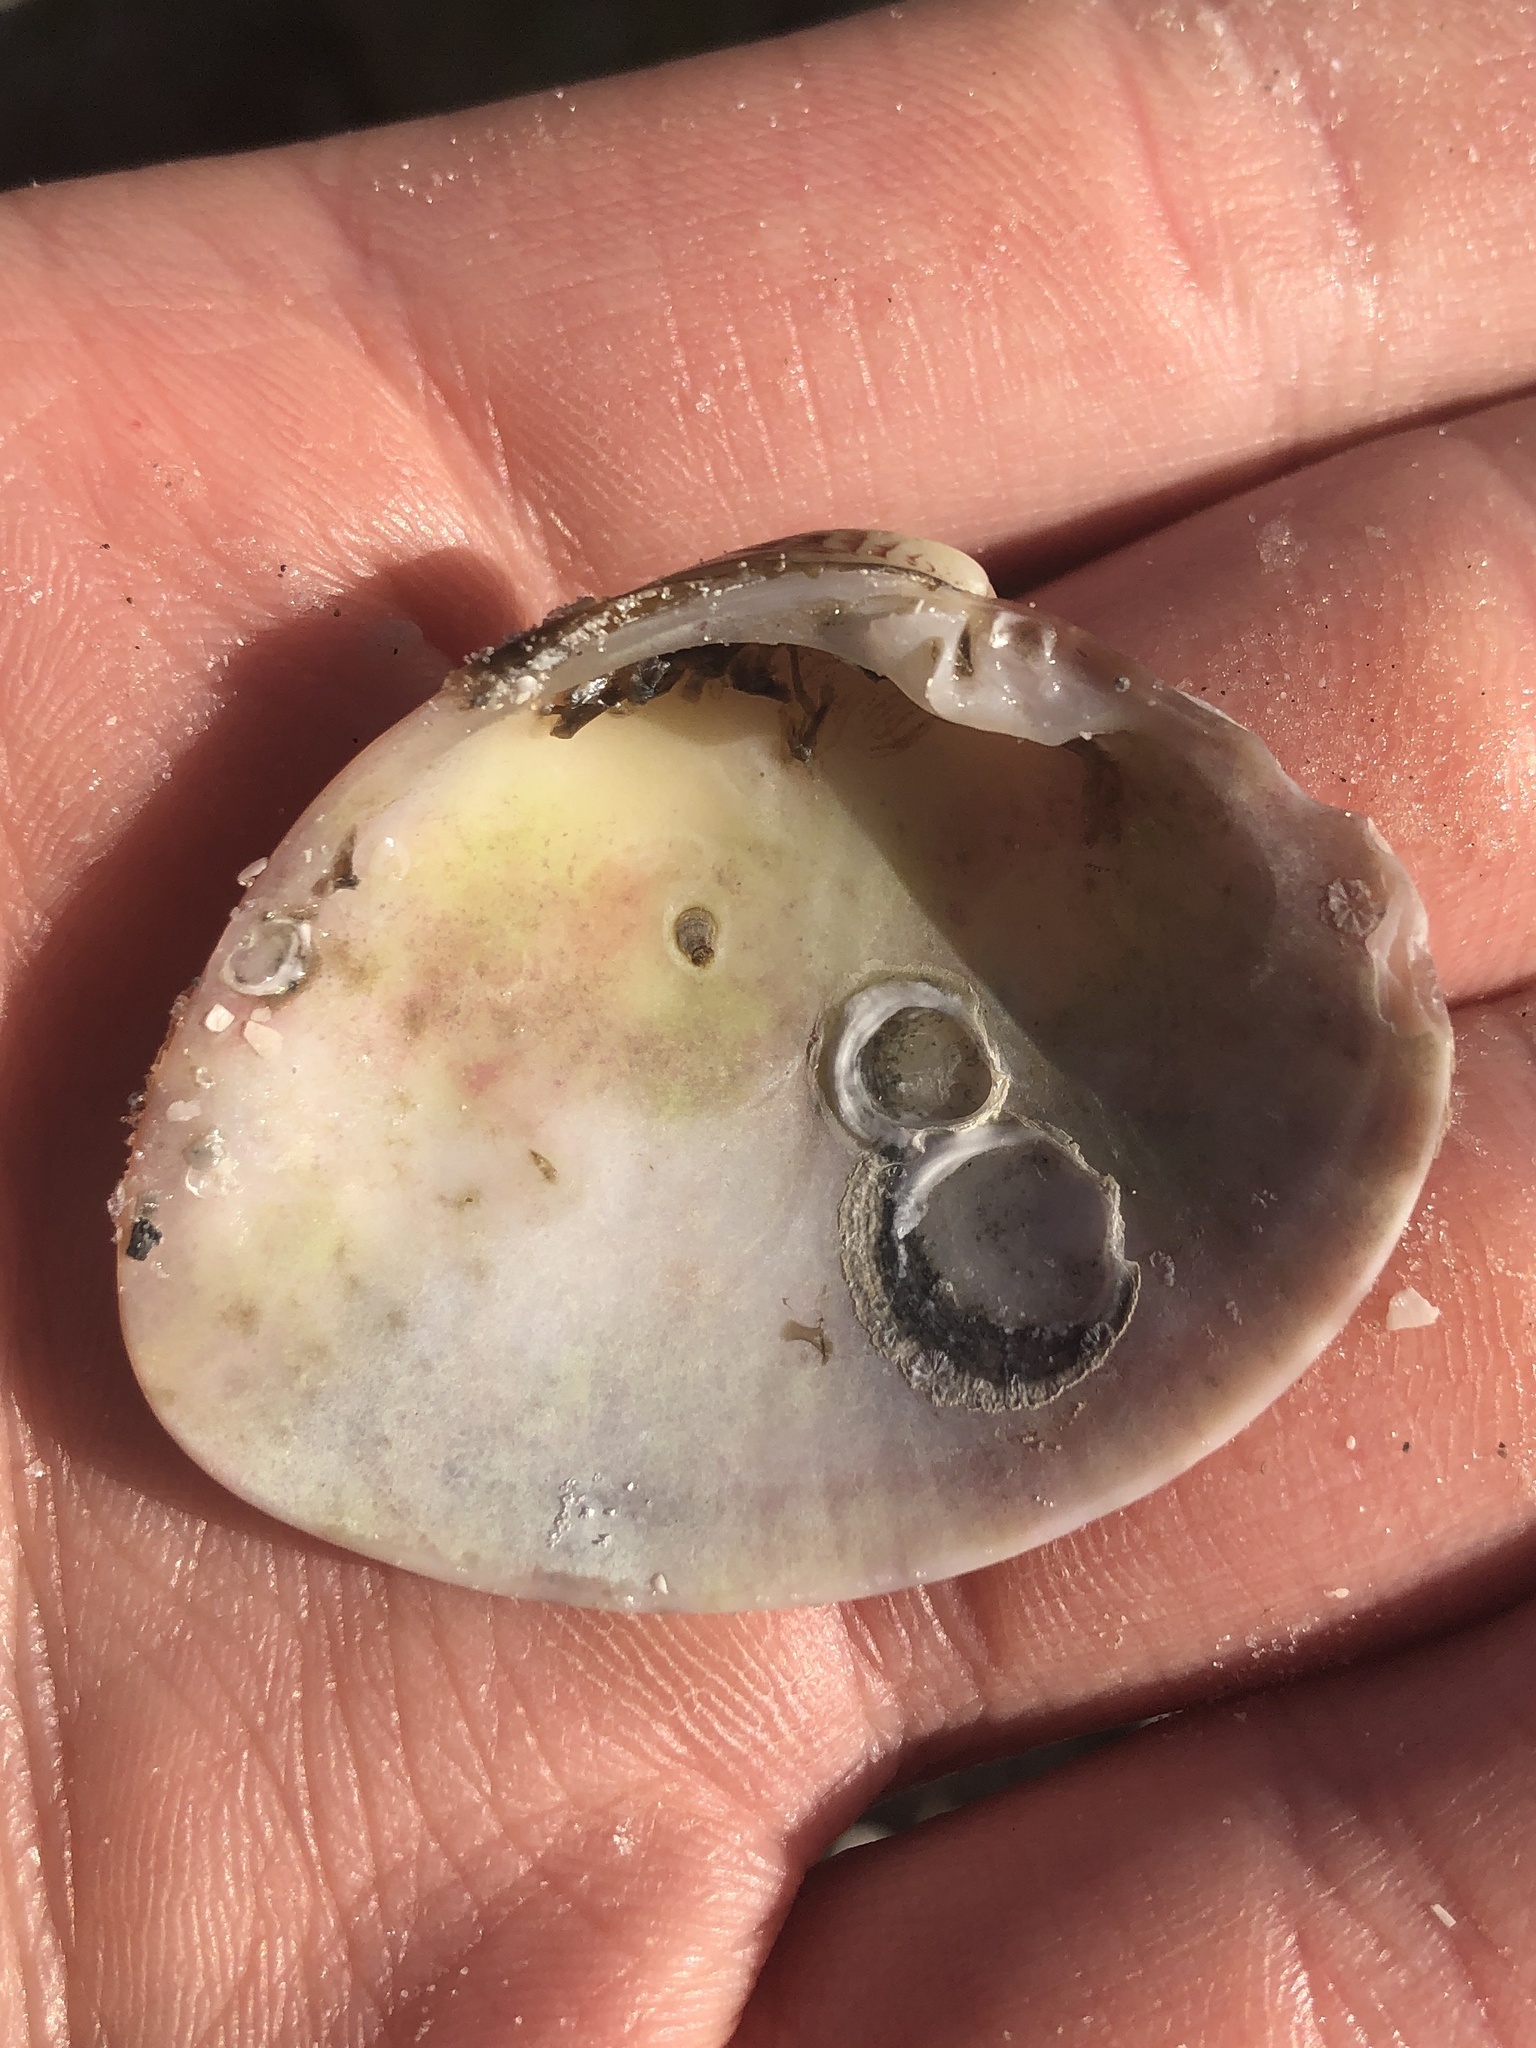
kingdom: Animalia
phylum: Mollusca
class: Bivalvia
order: Venerida
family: Veneridae
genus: Megapitaria
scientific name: Megapitaria maculata
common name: Calico clam
